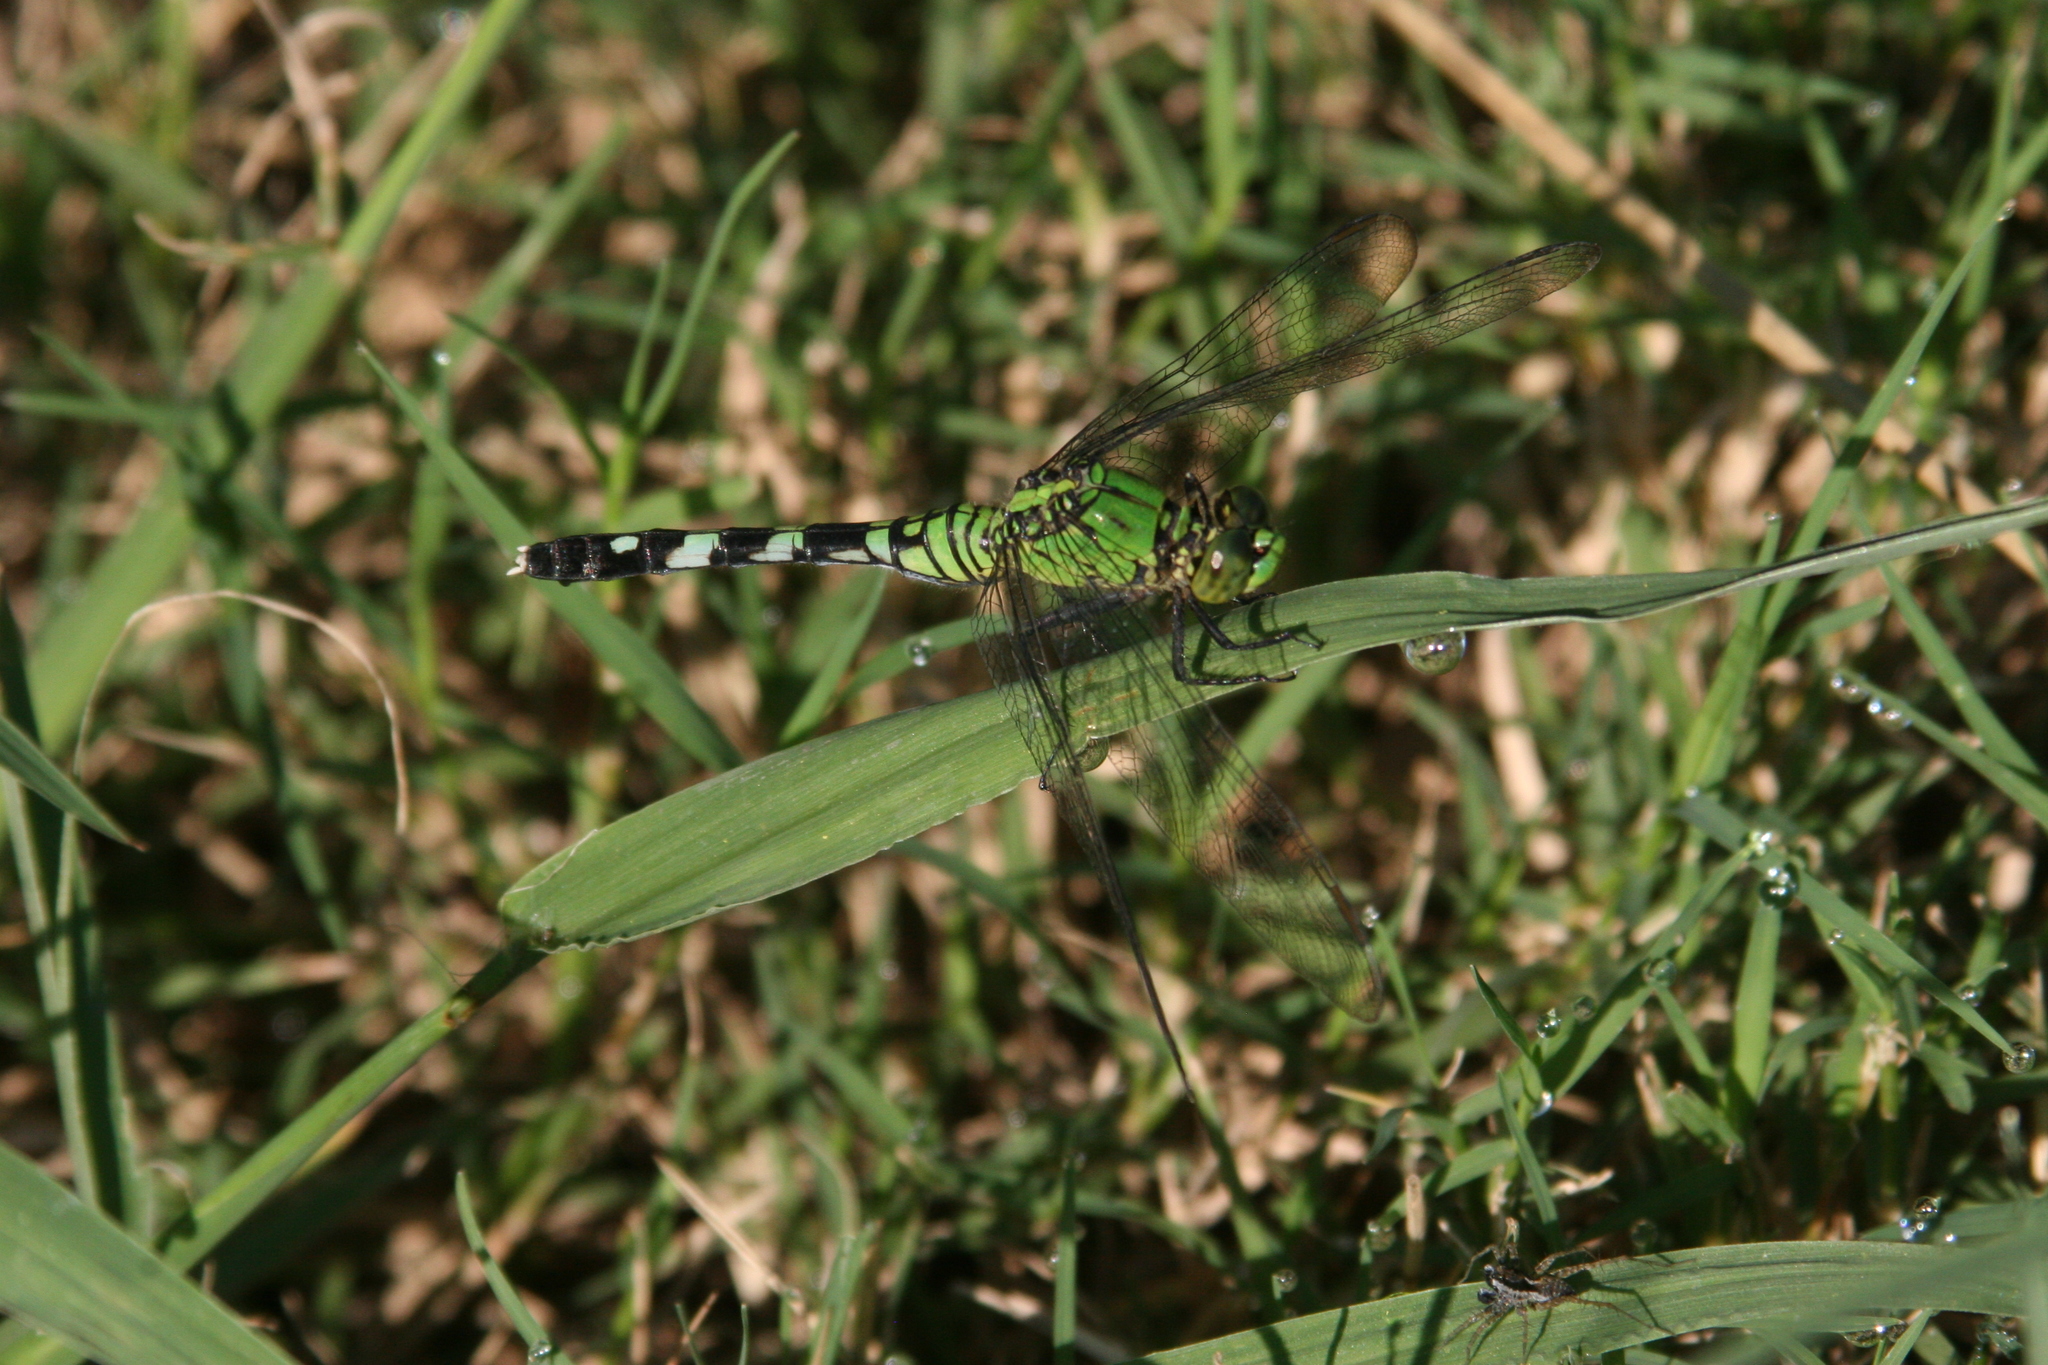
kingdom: Animalia
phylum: Arthropoda
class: Insecta
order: Odonata
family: Libellulidae
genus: Erythemis
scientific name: Erythemis simplicicollis
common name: Eastern pondhawk
